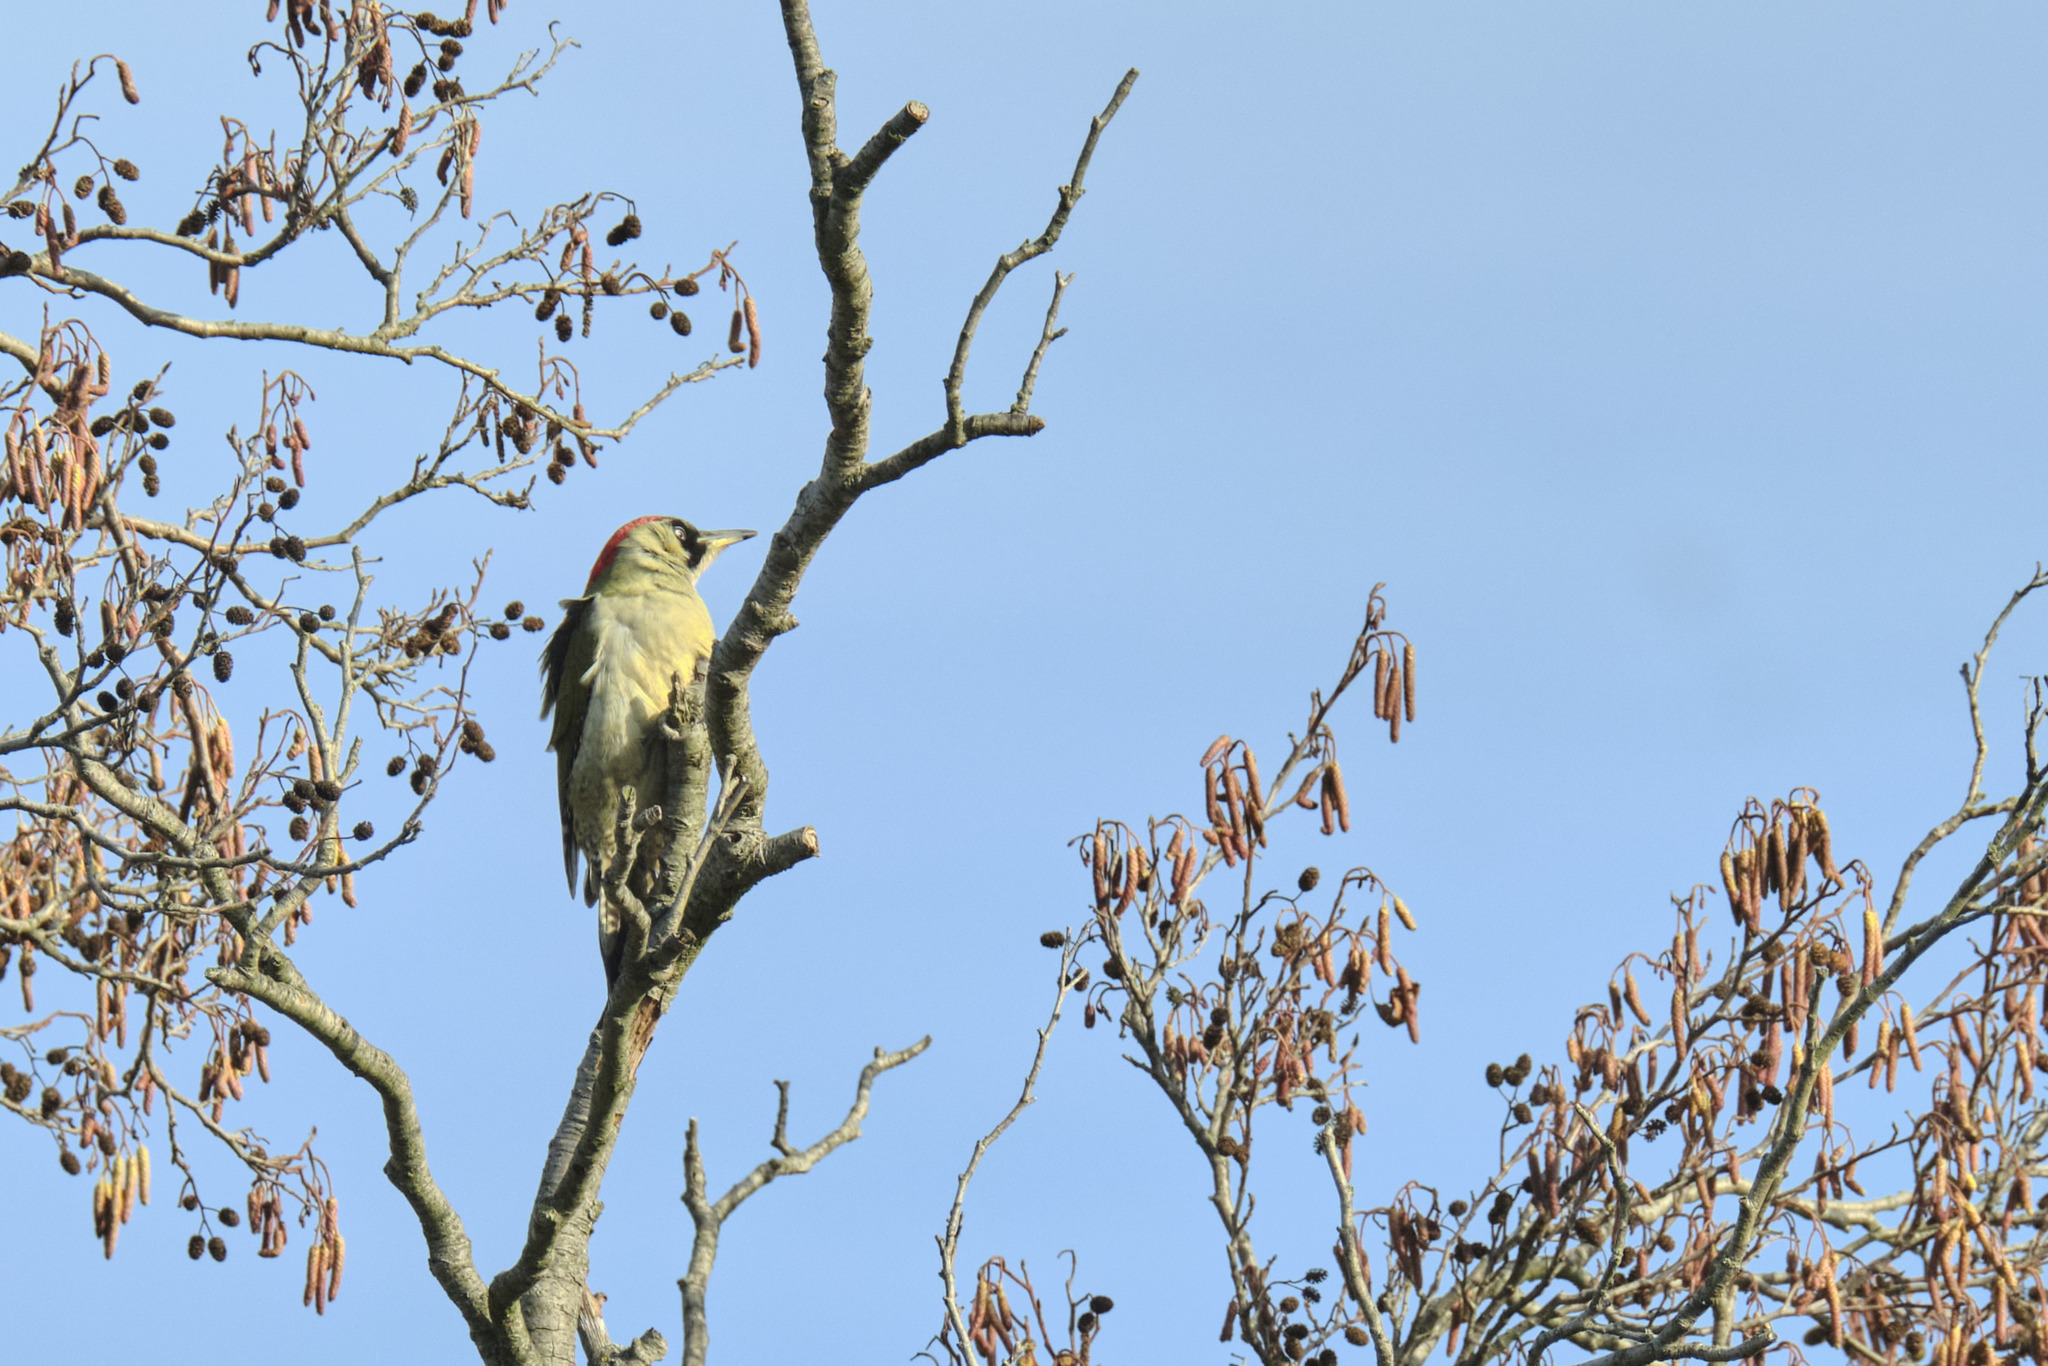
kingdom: Animalia
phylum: Chordata
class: Aves
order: Piciformes
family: Picidae
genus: Picus
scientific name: Picus viridis
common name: European green woodpecker
